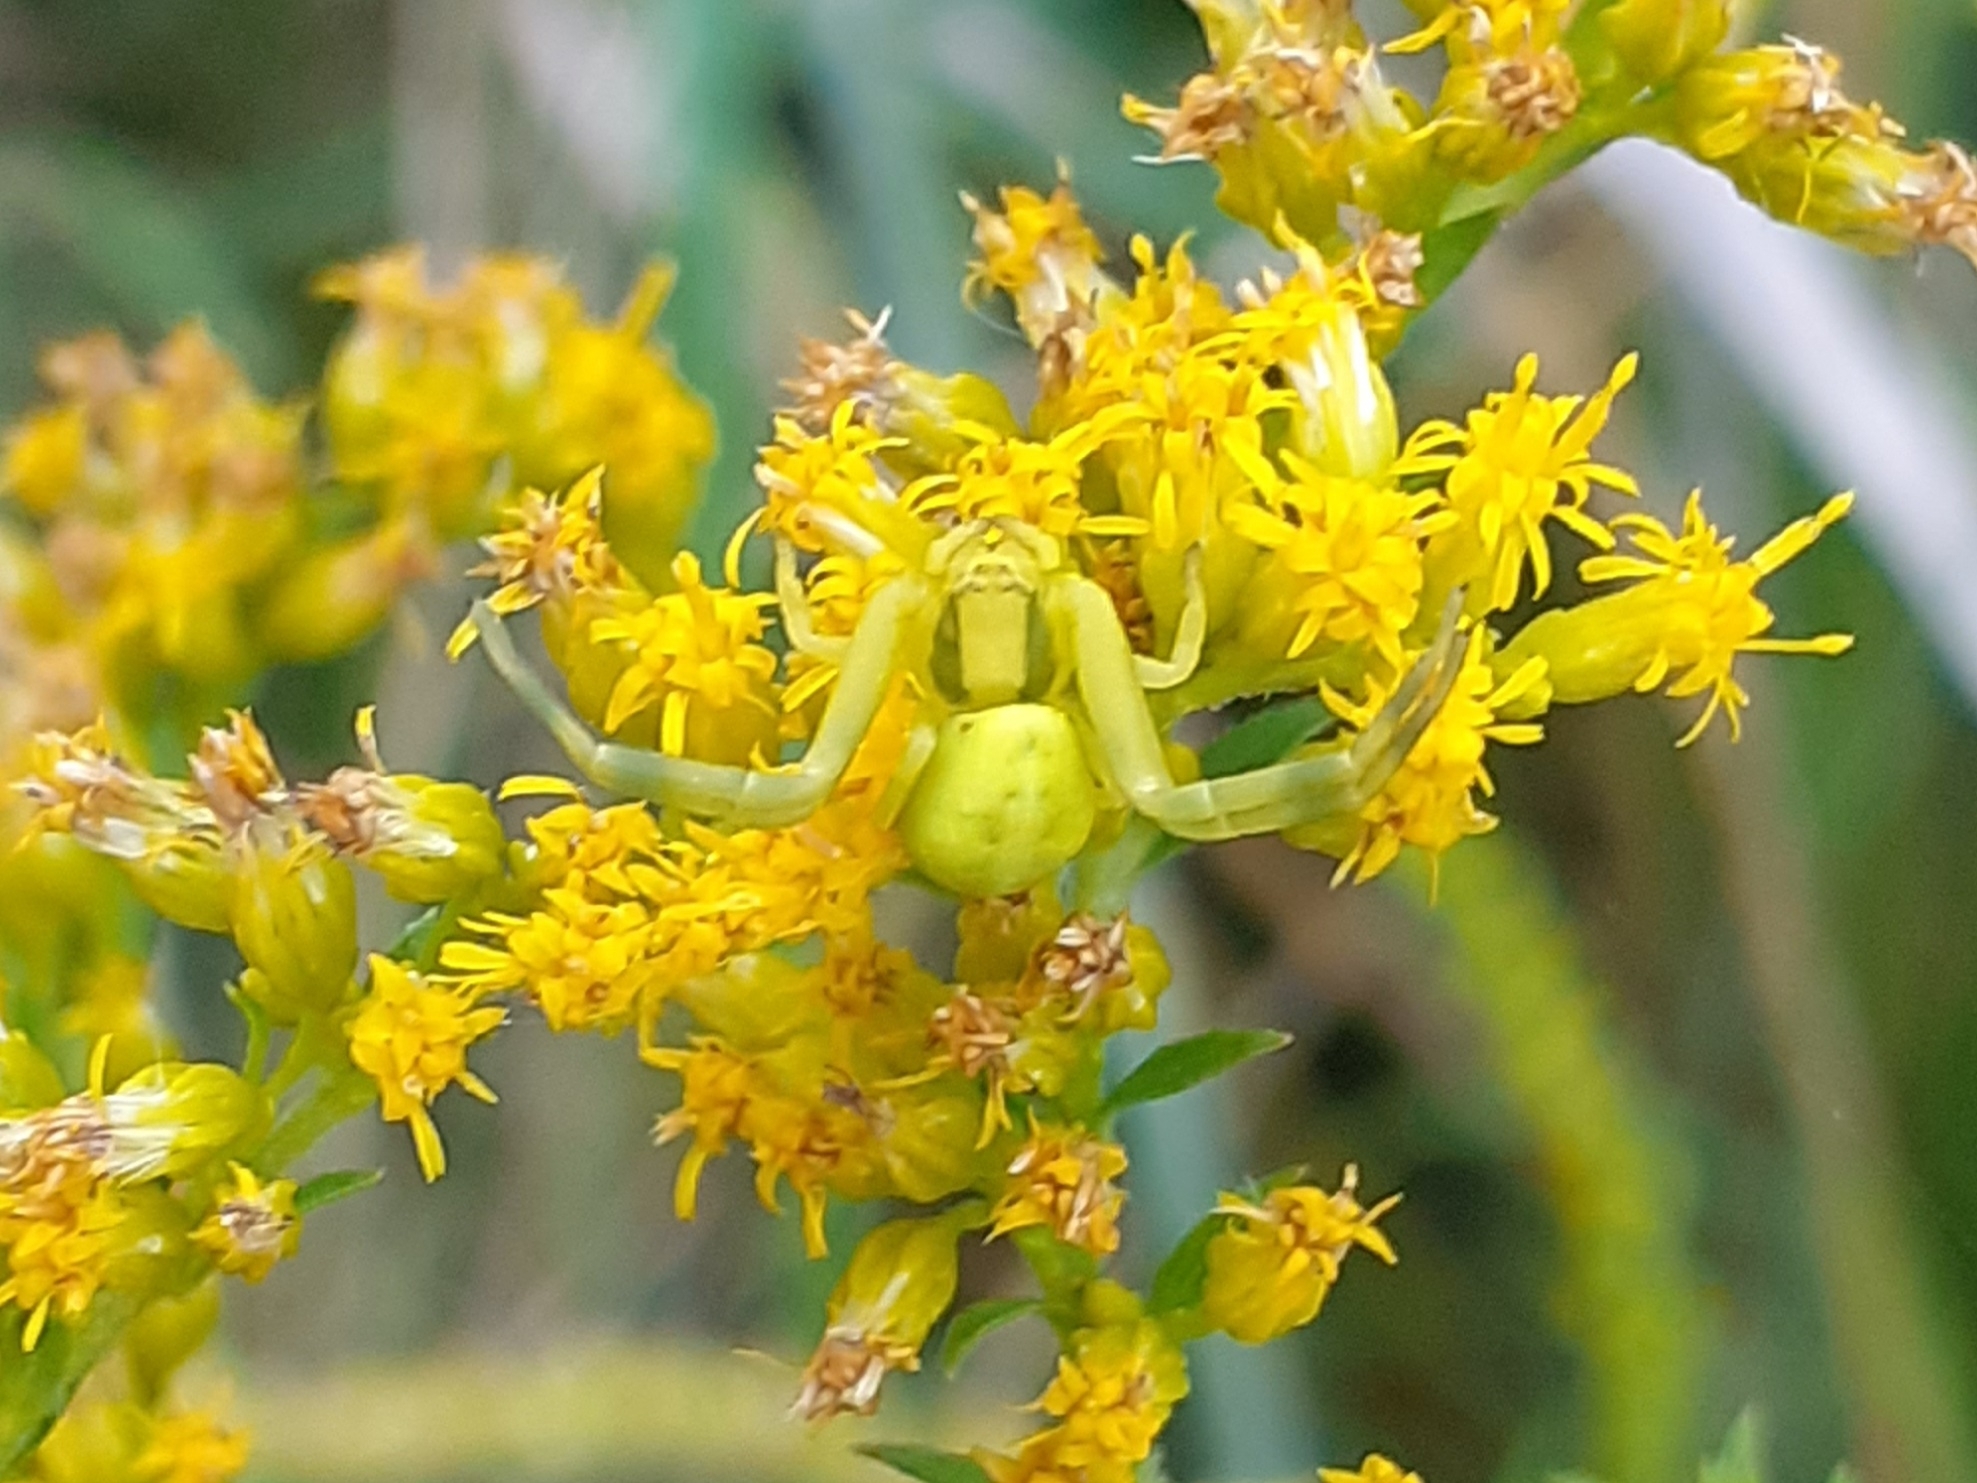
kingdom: Animalia
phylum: Arthropoda
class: Arachnida
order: Araneae
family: Thomisidae
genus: Misumena
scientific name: Misumena vatia
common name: Goldenrod crab spider
